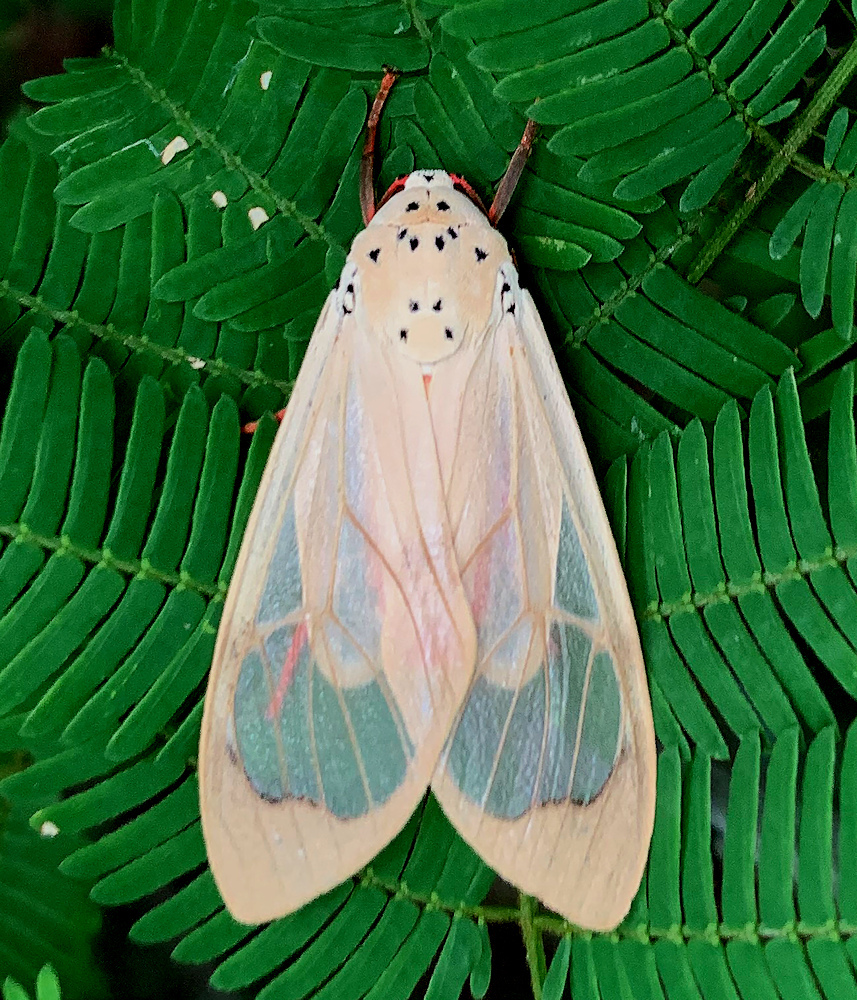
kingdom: Animalia
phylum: Arthropoda
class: Insecta
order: Lepidoptera
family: Erebidae
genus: Amerila
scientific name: Amerila vitrea
